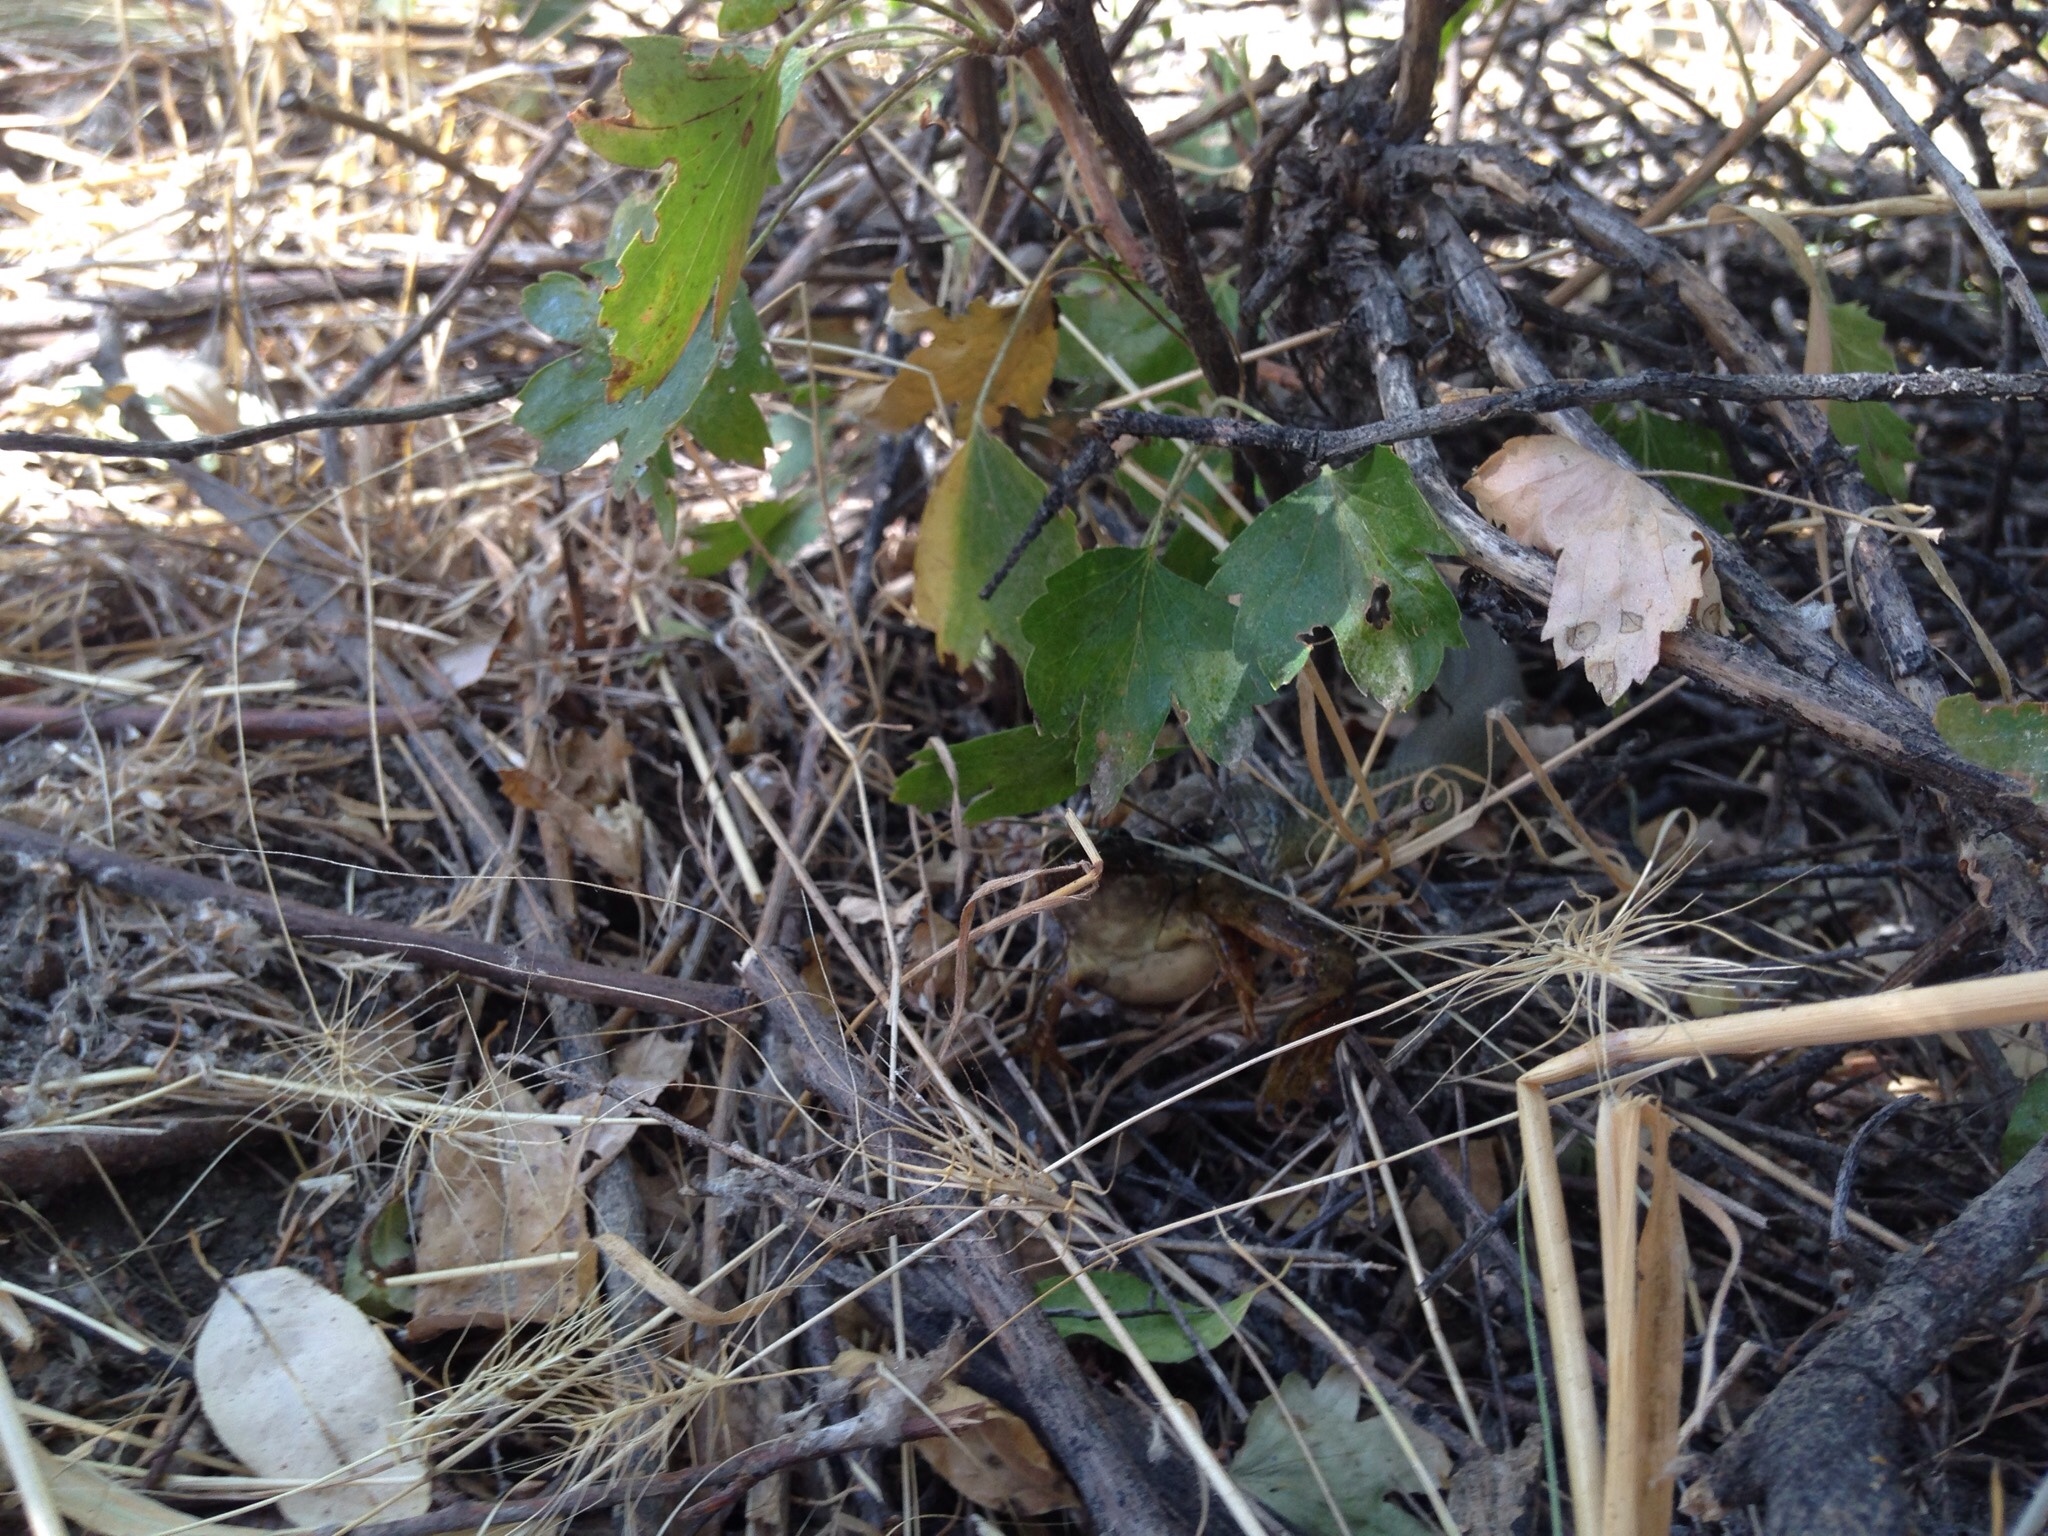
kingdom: Animalia
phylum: Chordata
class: Squamata
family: Colubridae
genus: Coluber
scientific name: Coluber constrictor
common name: Eastern racer
